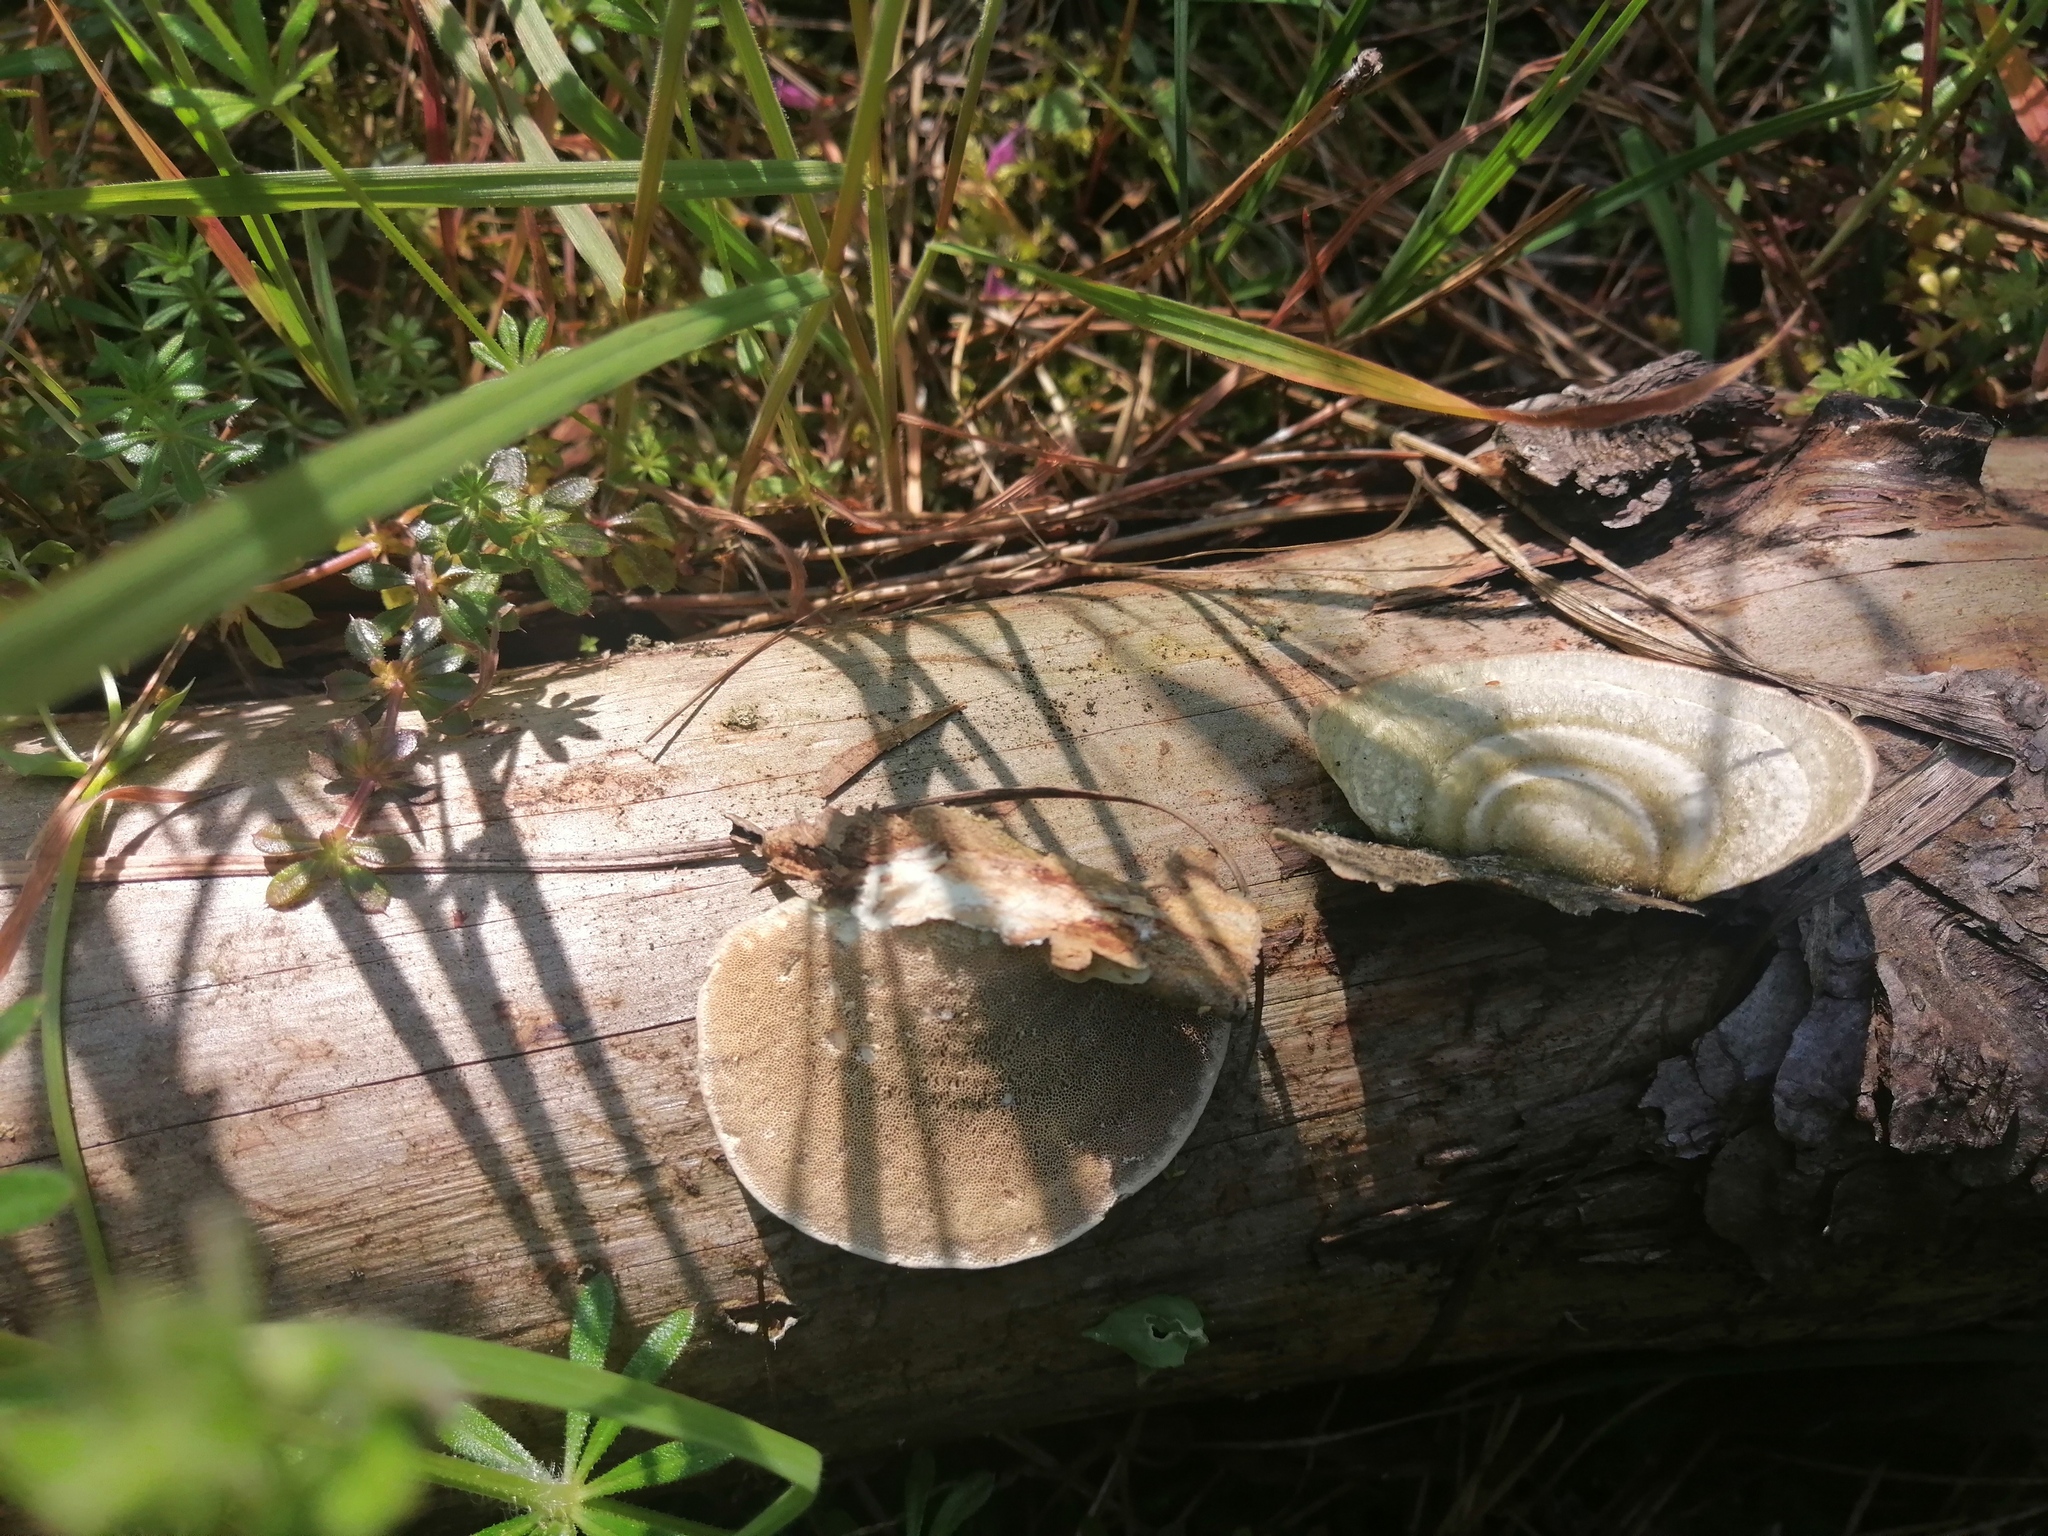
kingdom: Fungi
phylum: Basidiomycota
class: Agaricomycetes
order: Polyporales
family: Polyporaceae
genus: Trametes
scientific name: Trametes hirsuta
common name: Hairy bracket
